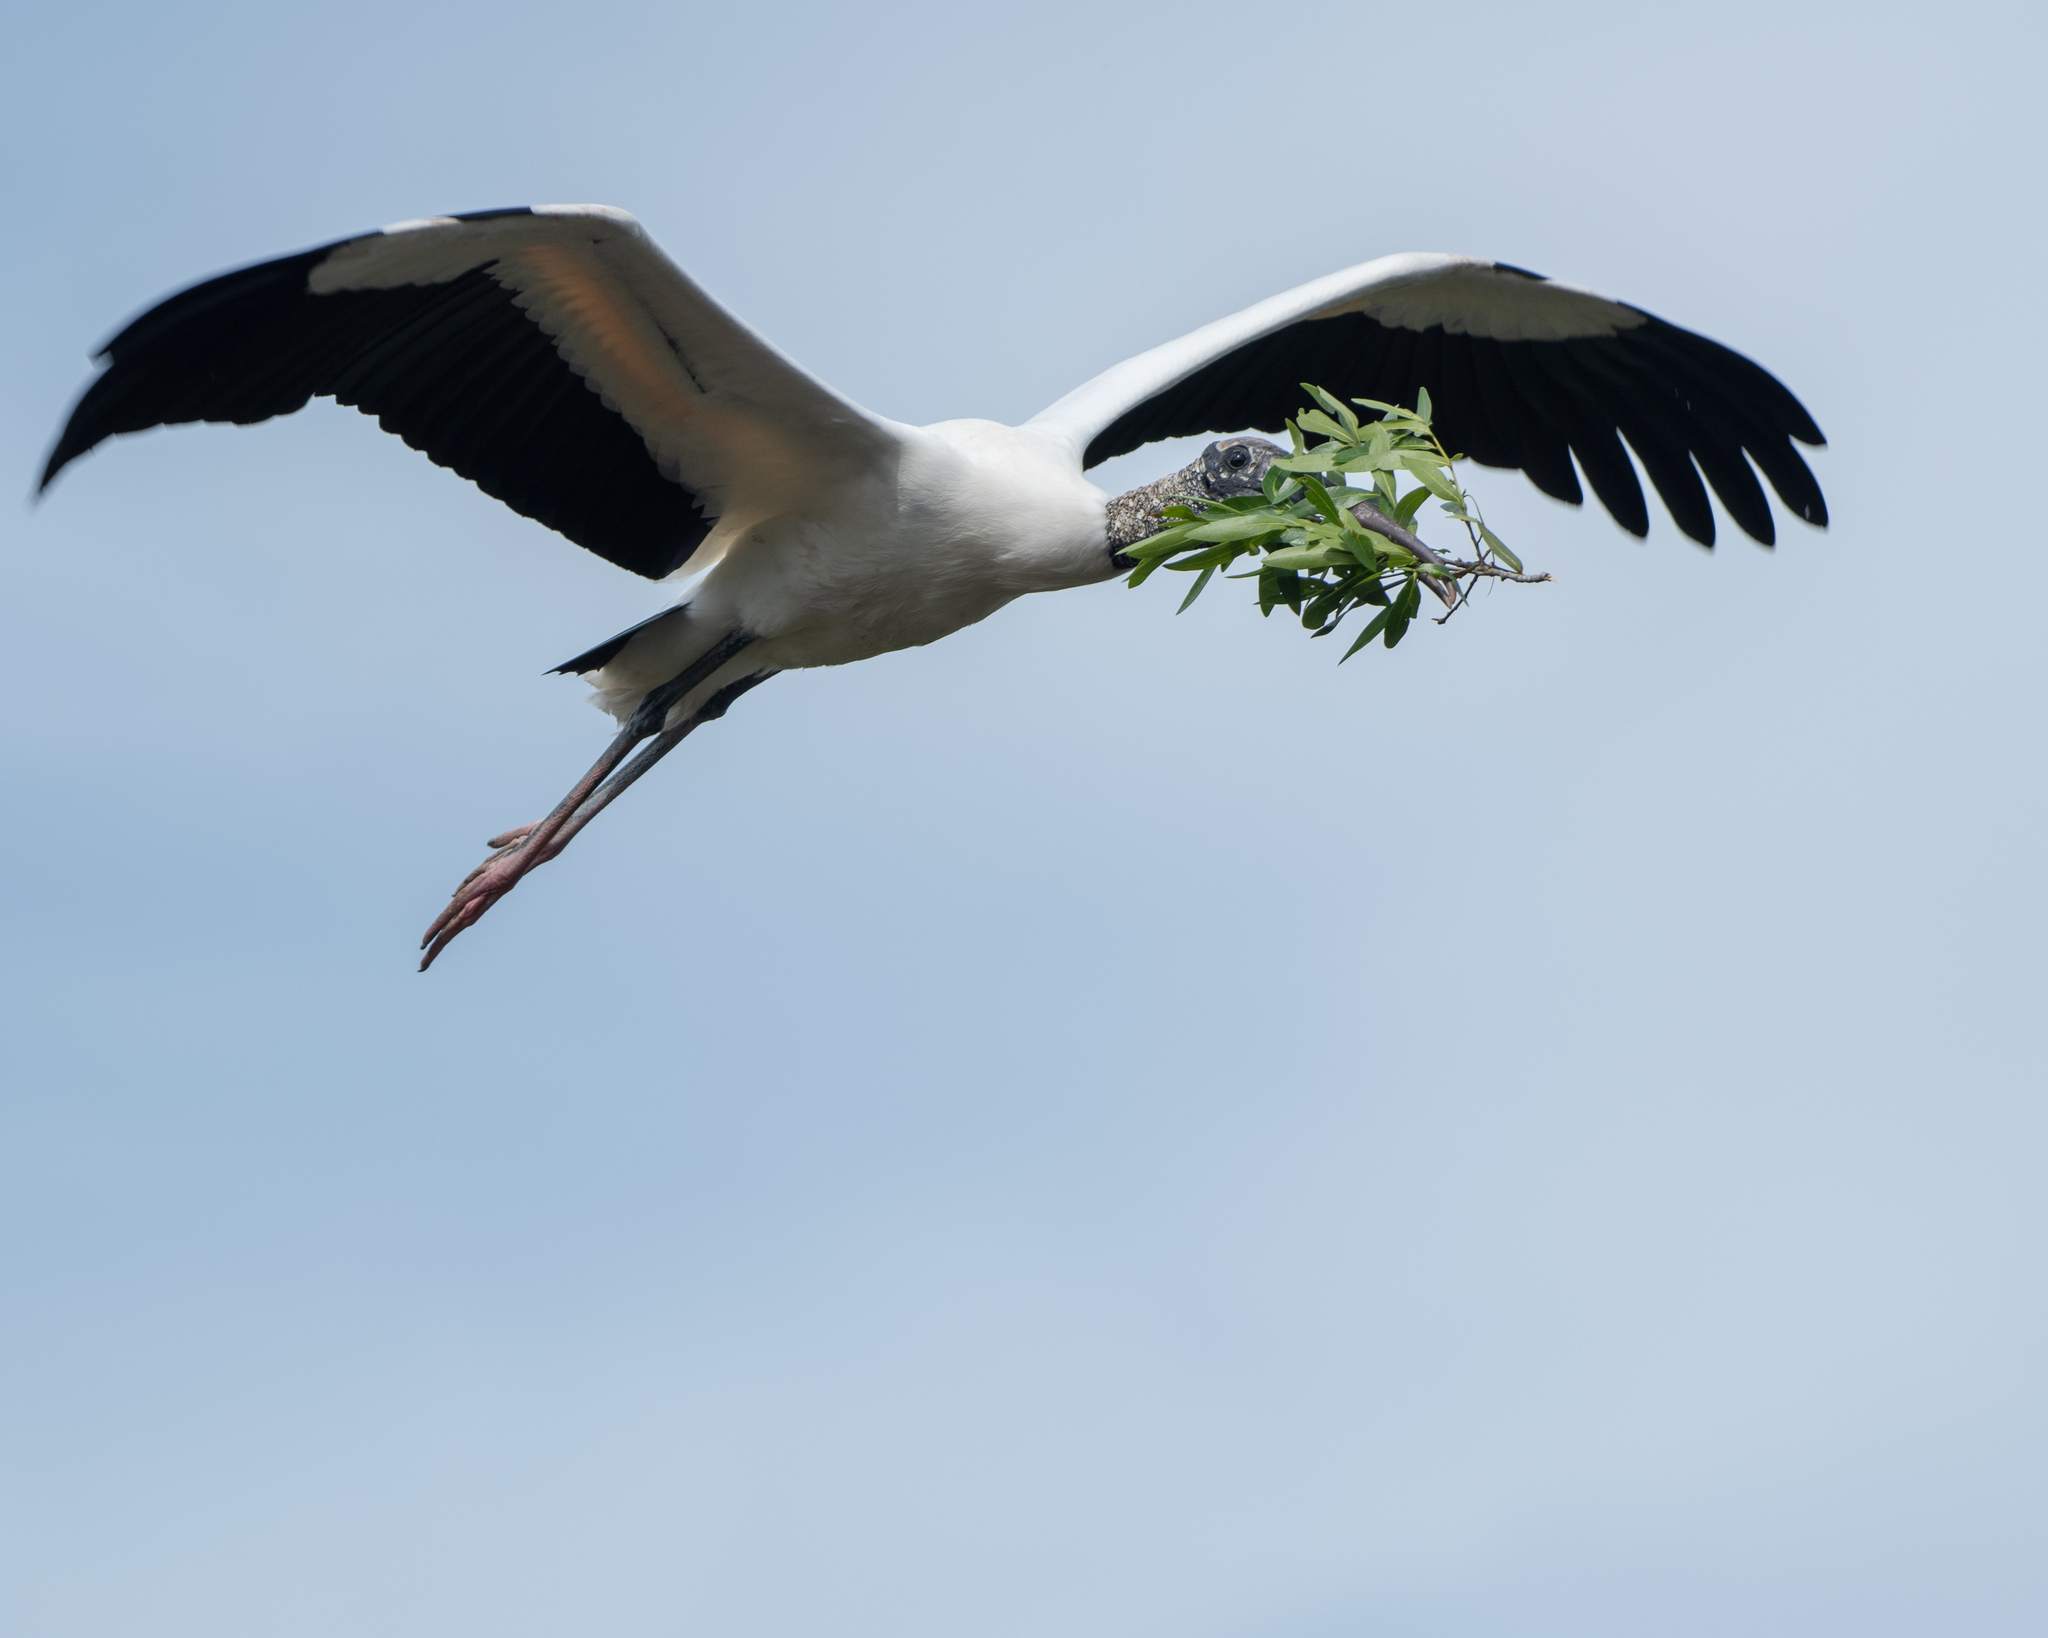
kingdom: Animalia
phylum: Chordata
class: Aves
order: Ciconiiformes
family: Ciconiidae
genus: Mycteria
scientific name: Mycteria americana
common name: Wood stork
